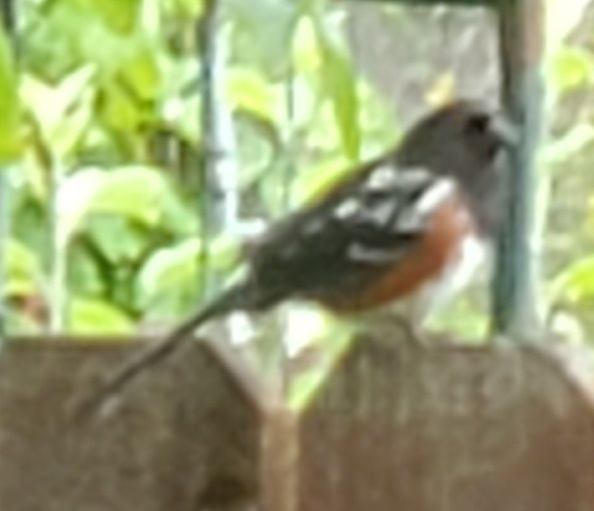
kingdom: Animalia
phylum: Chordata
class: Aves
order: Passeriformes
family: Passerellidae
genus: Pipilo
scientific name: Pipilo maculatus
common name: Spotted towhee
